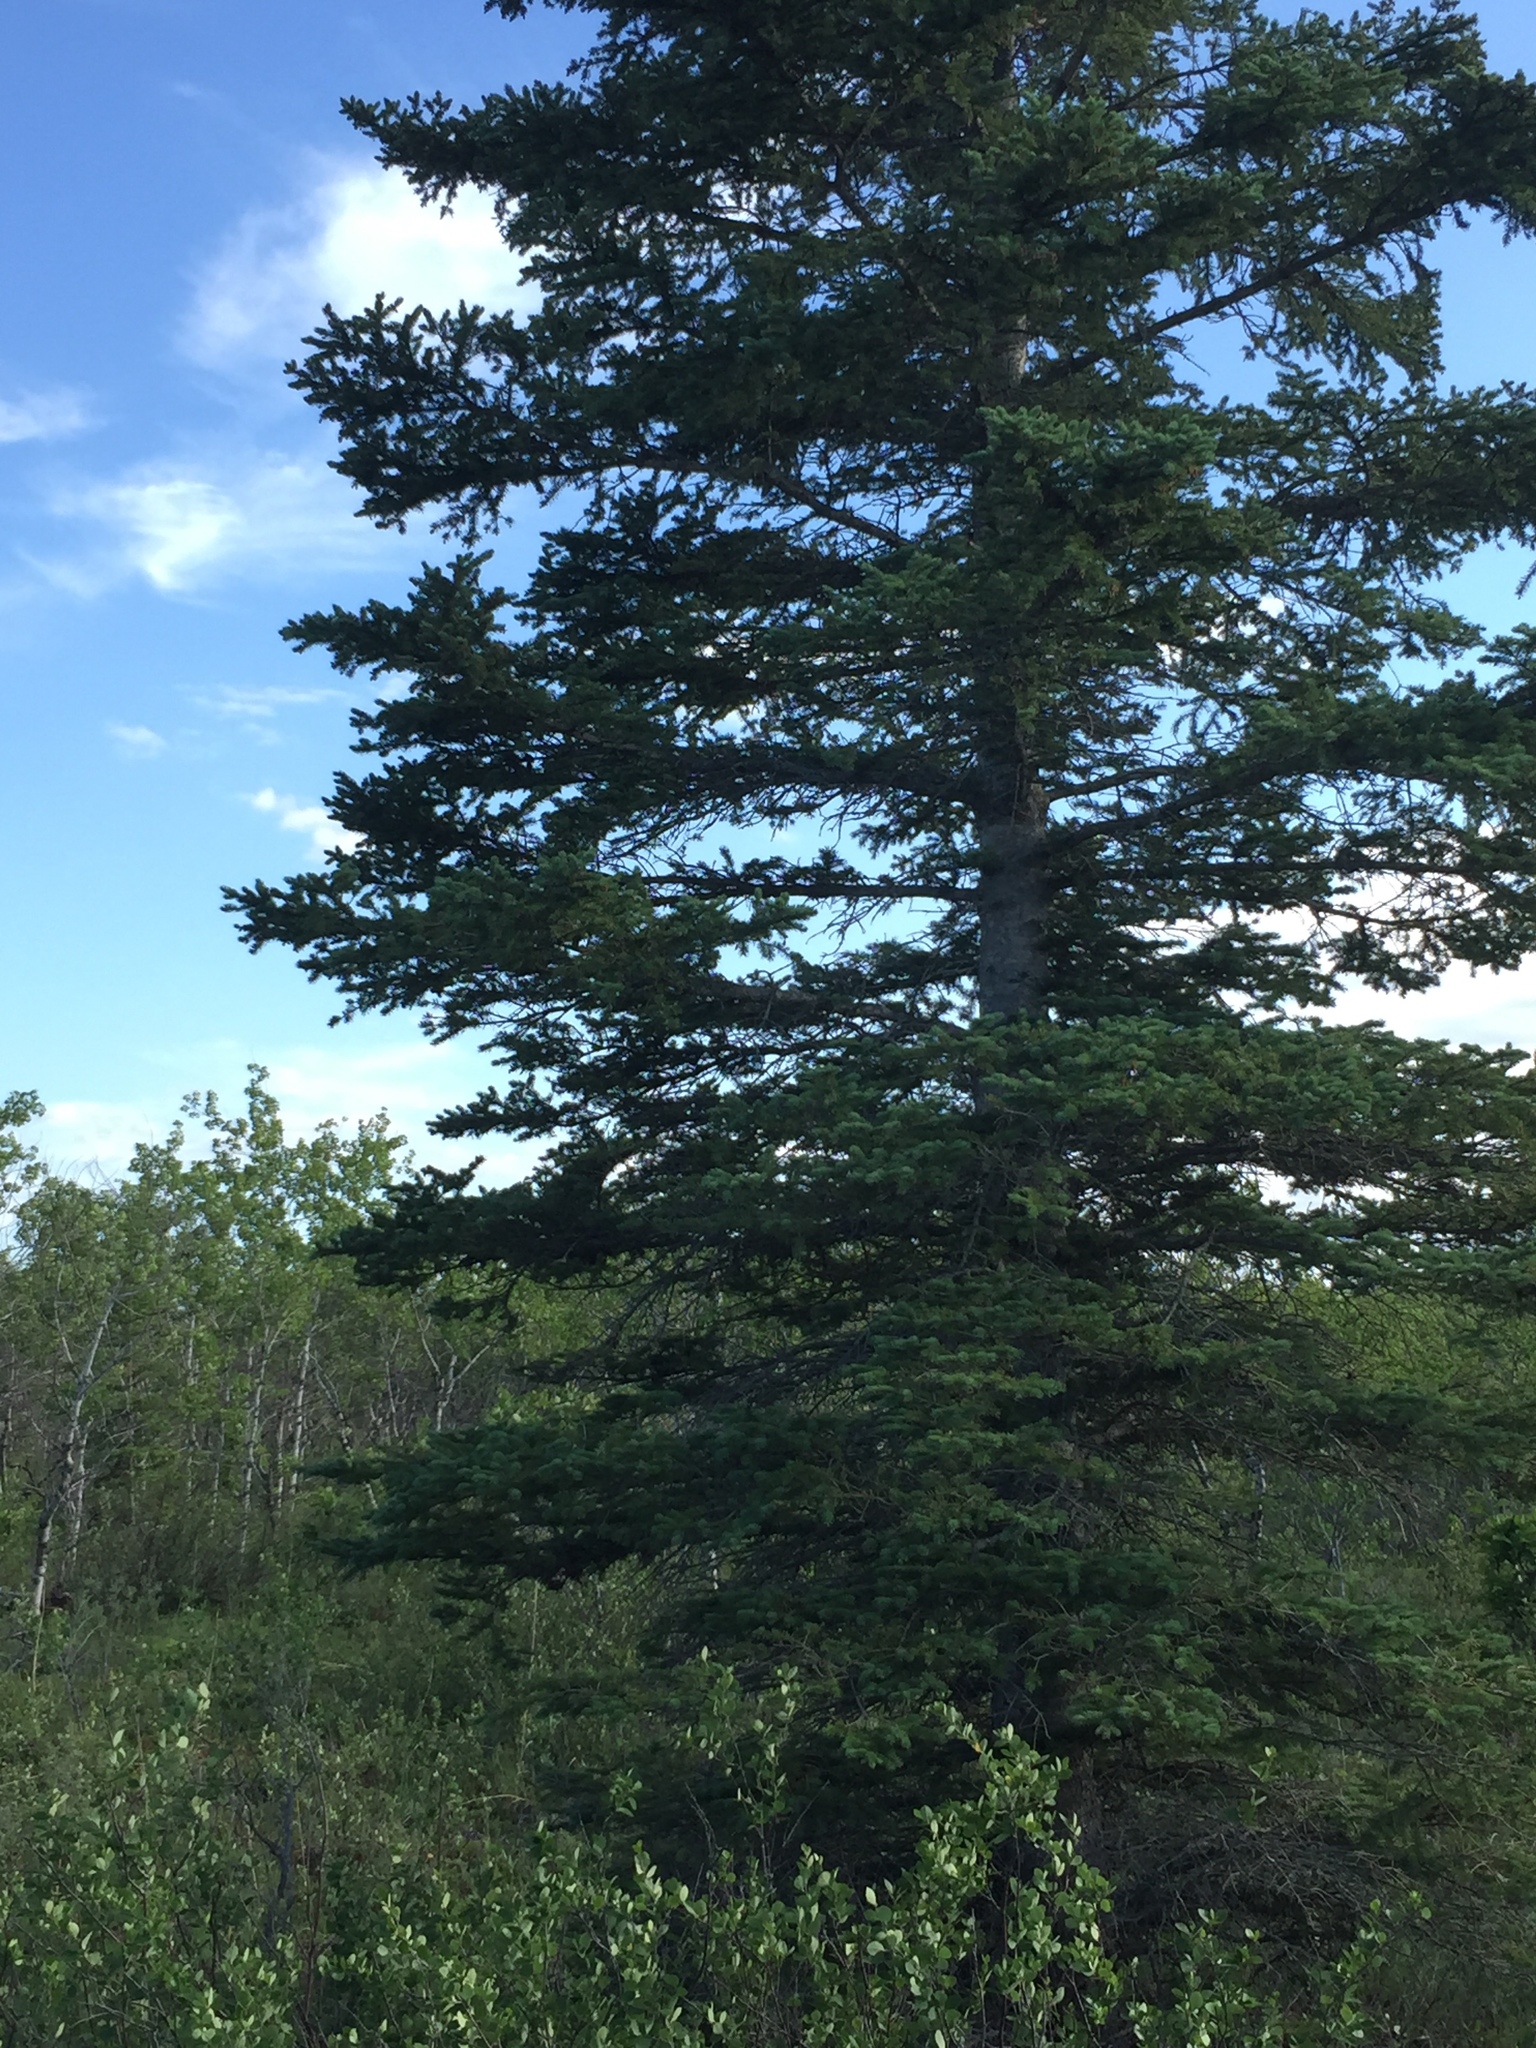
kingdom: Plantae
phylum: Tracheophyta
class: Pinopsida
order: Pinales
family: Pinaceae
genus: Picea
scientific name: Picea glauca
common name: White spruce
